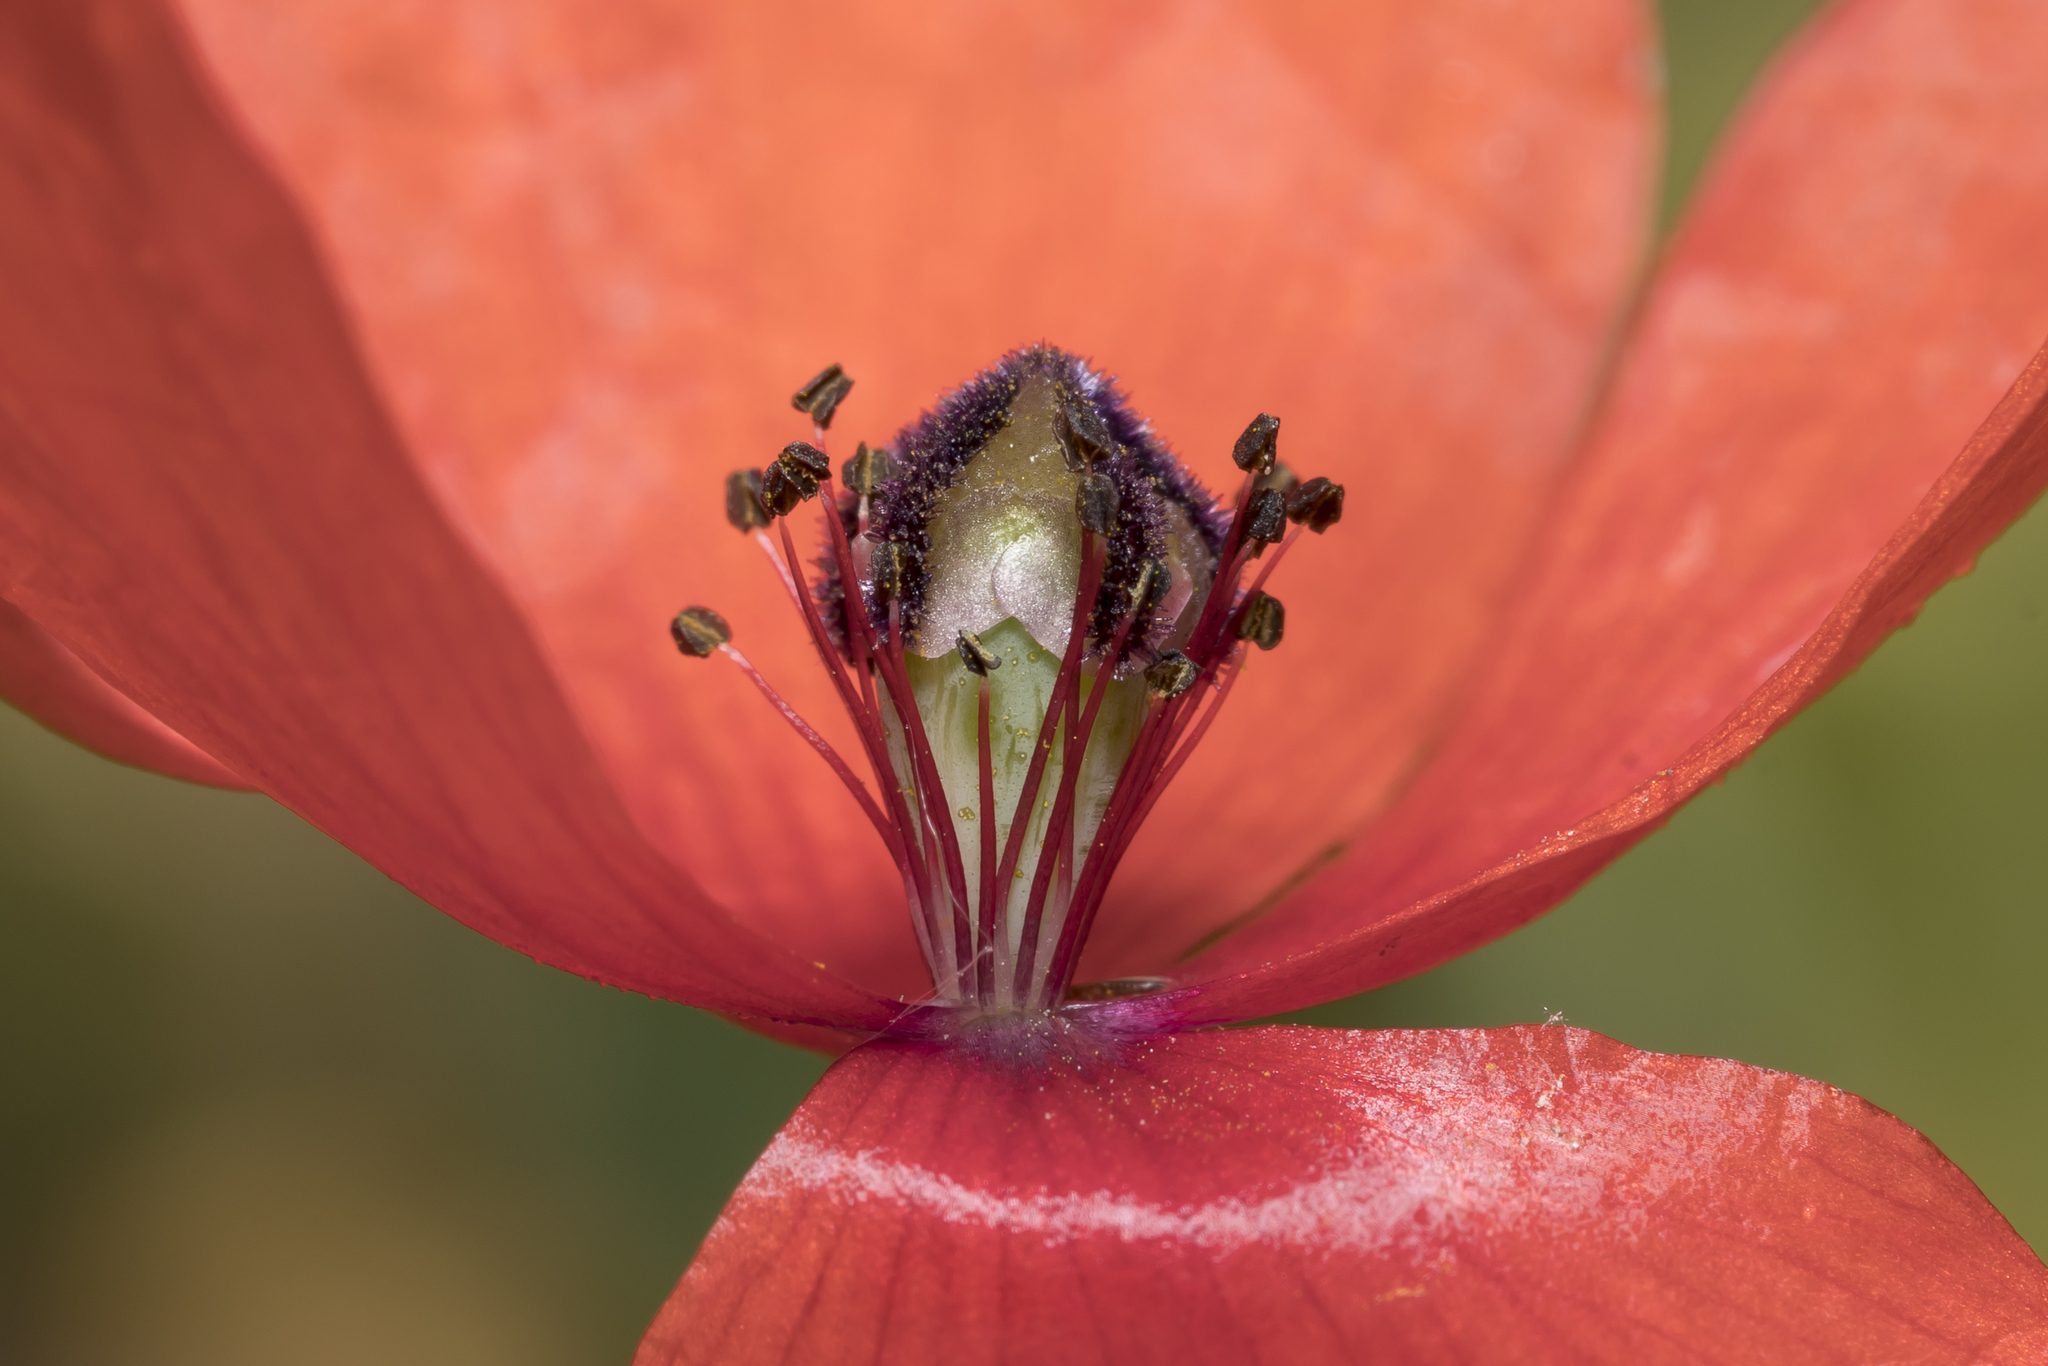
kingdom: Plantae
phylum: Tracheophyta
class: Magnoliopsida
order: Ranunculales
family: Papaveraceae
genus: Papaver
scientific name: Papaver rhoeas
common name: Corn poppy
